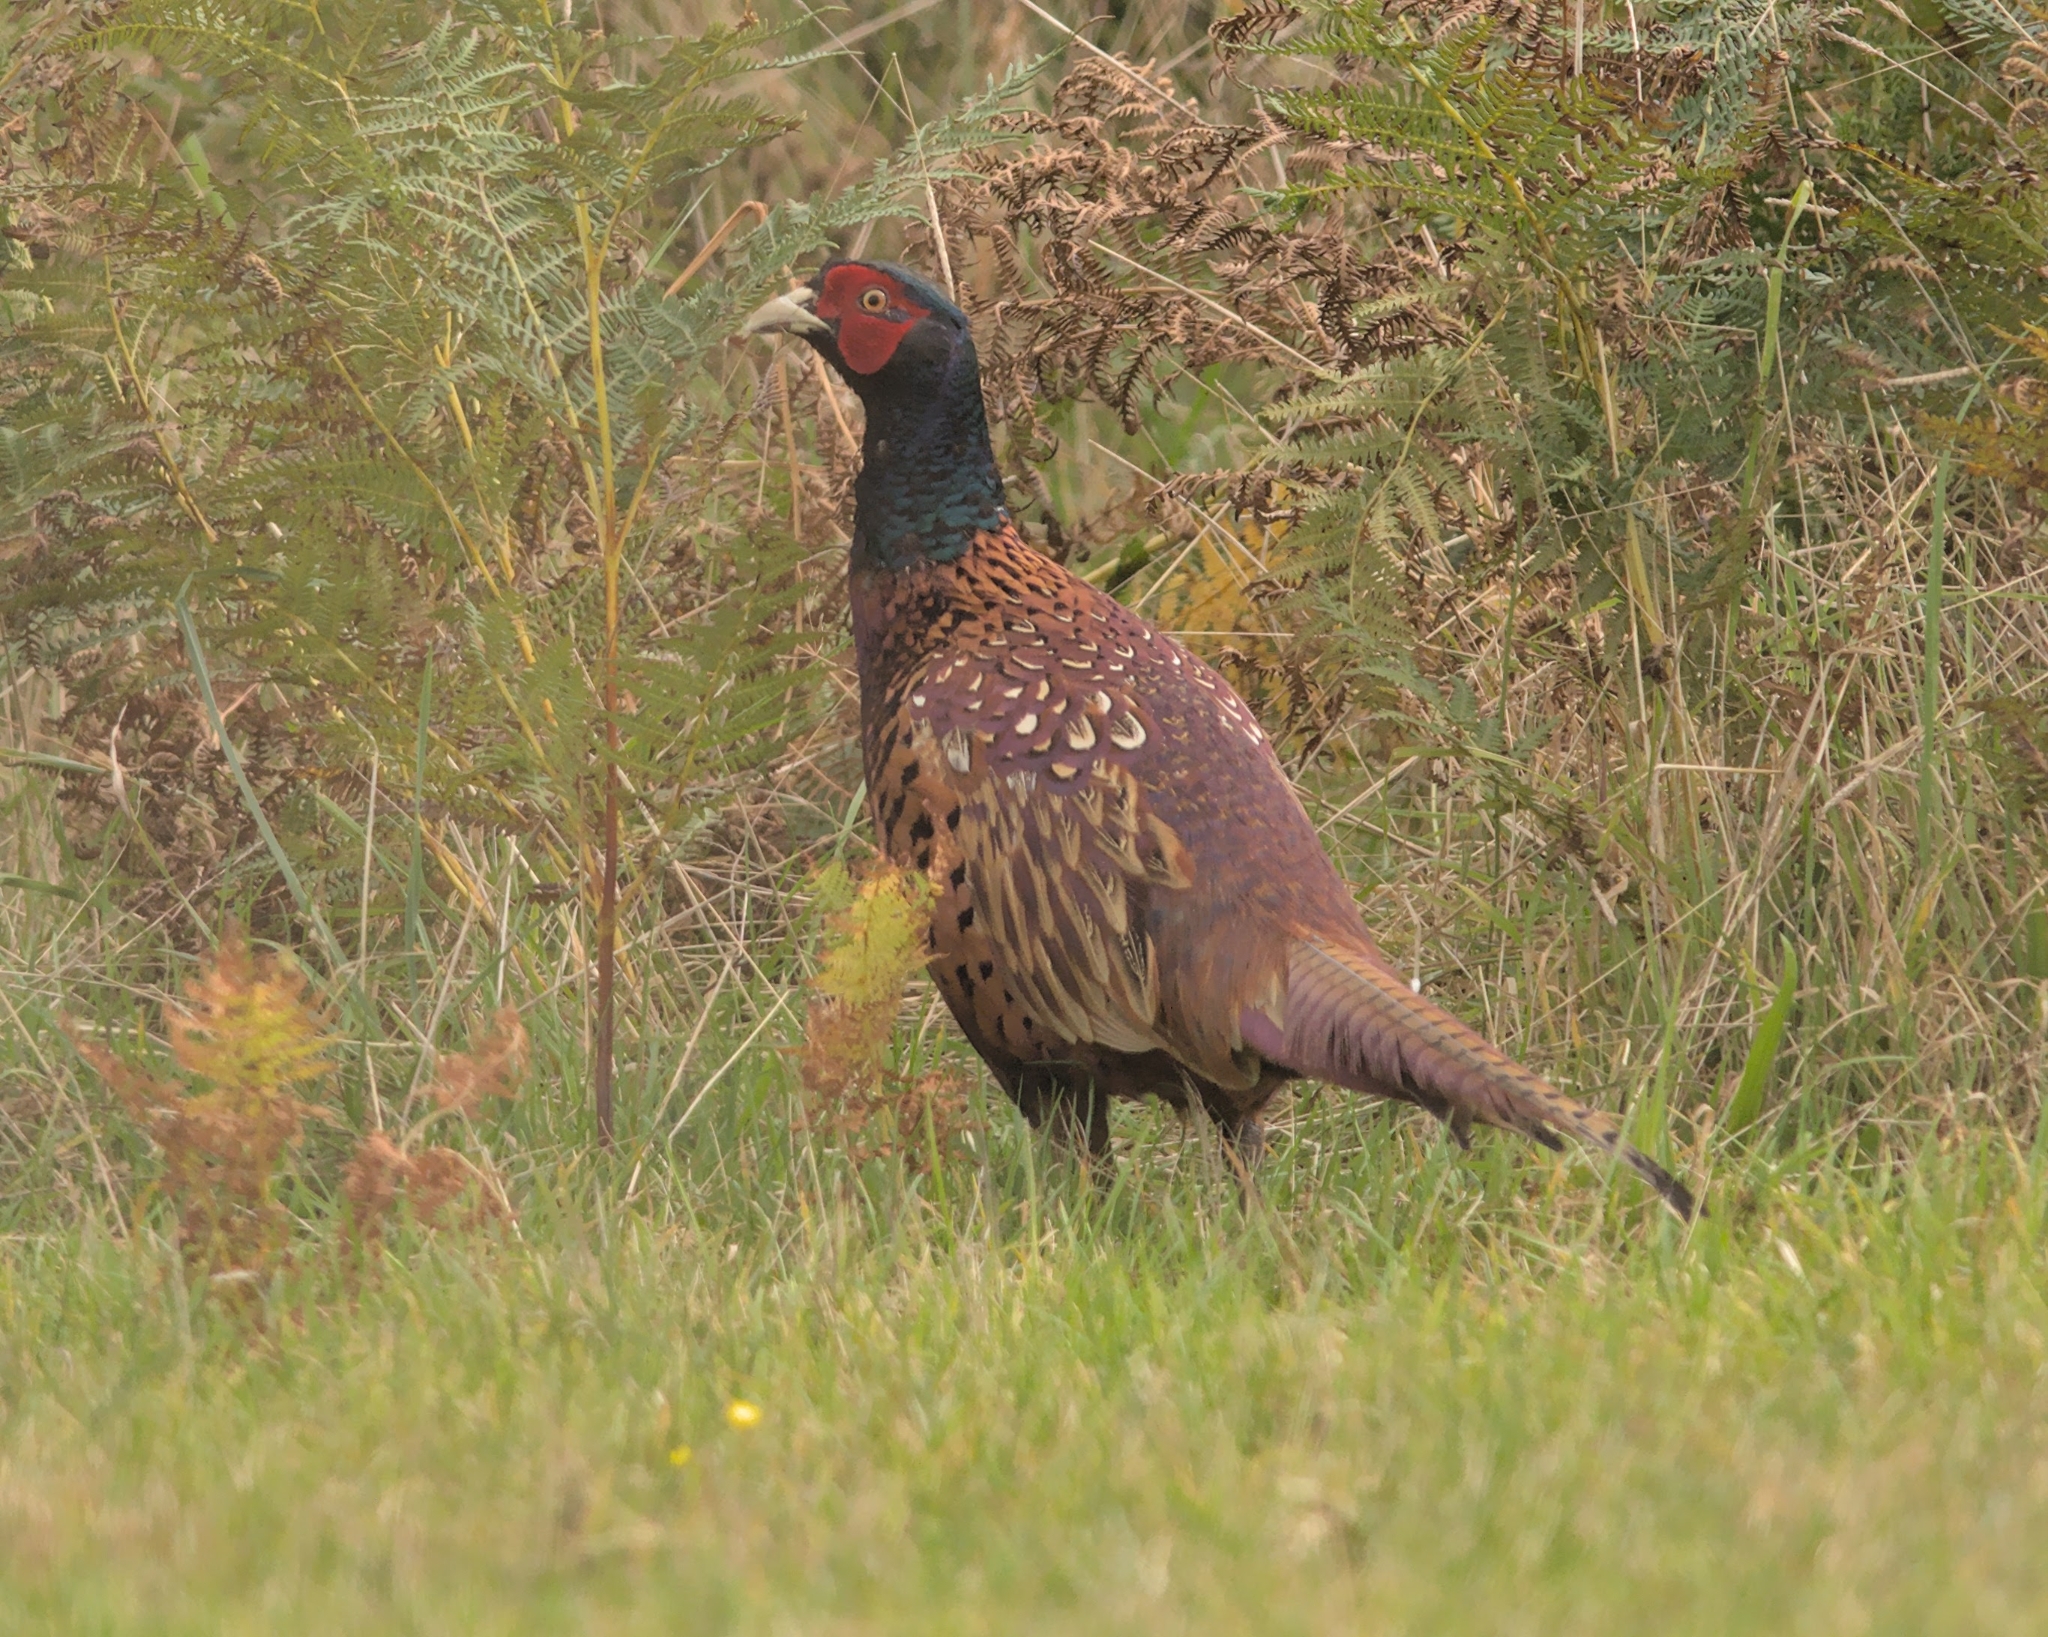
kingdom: Animalia
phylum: Chordata
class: Aves
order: Galliformes
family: Phasianidae
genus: Phasianus
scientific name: Phasianus colchicus
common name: Common pheasant
